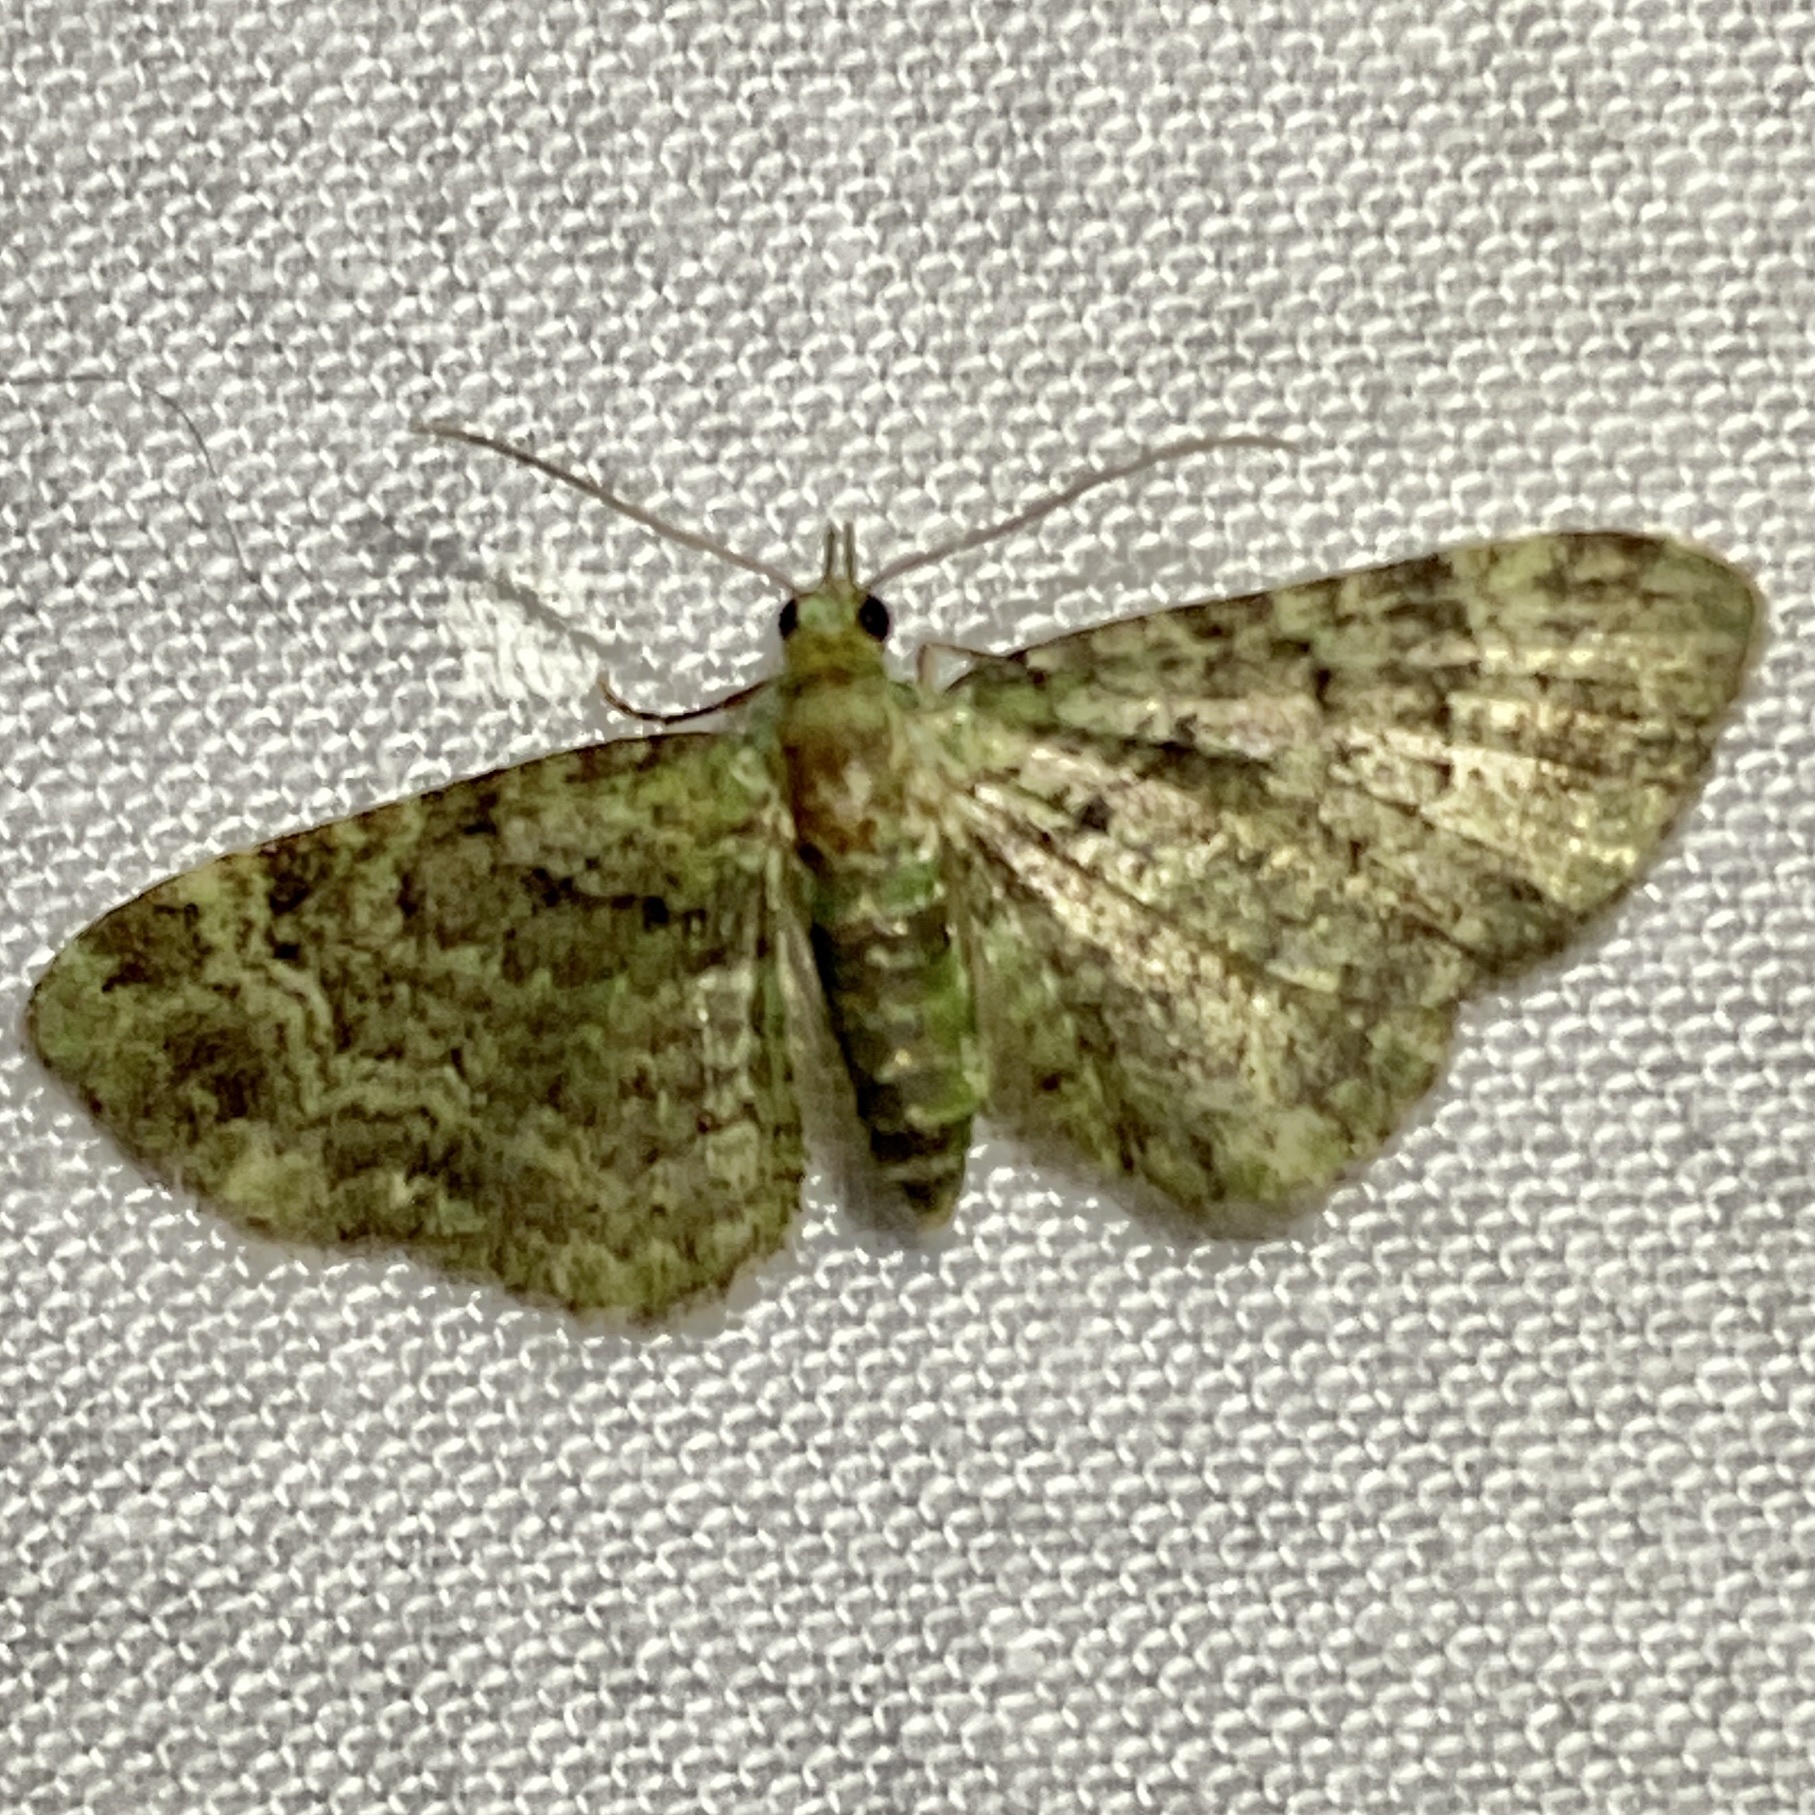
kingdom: Animalia
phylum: Arthropoda
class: Insecta
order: Lepidoptera
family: Geometridae
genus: Pasiphila
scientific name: Pasiphila rectangulata
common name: Green pug
